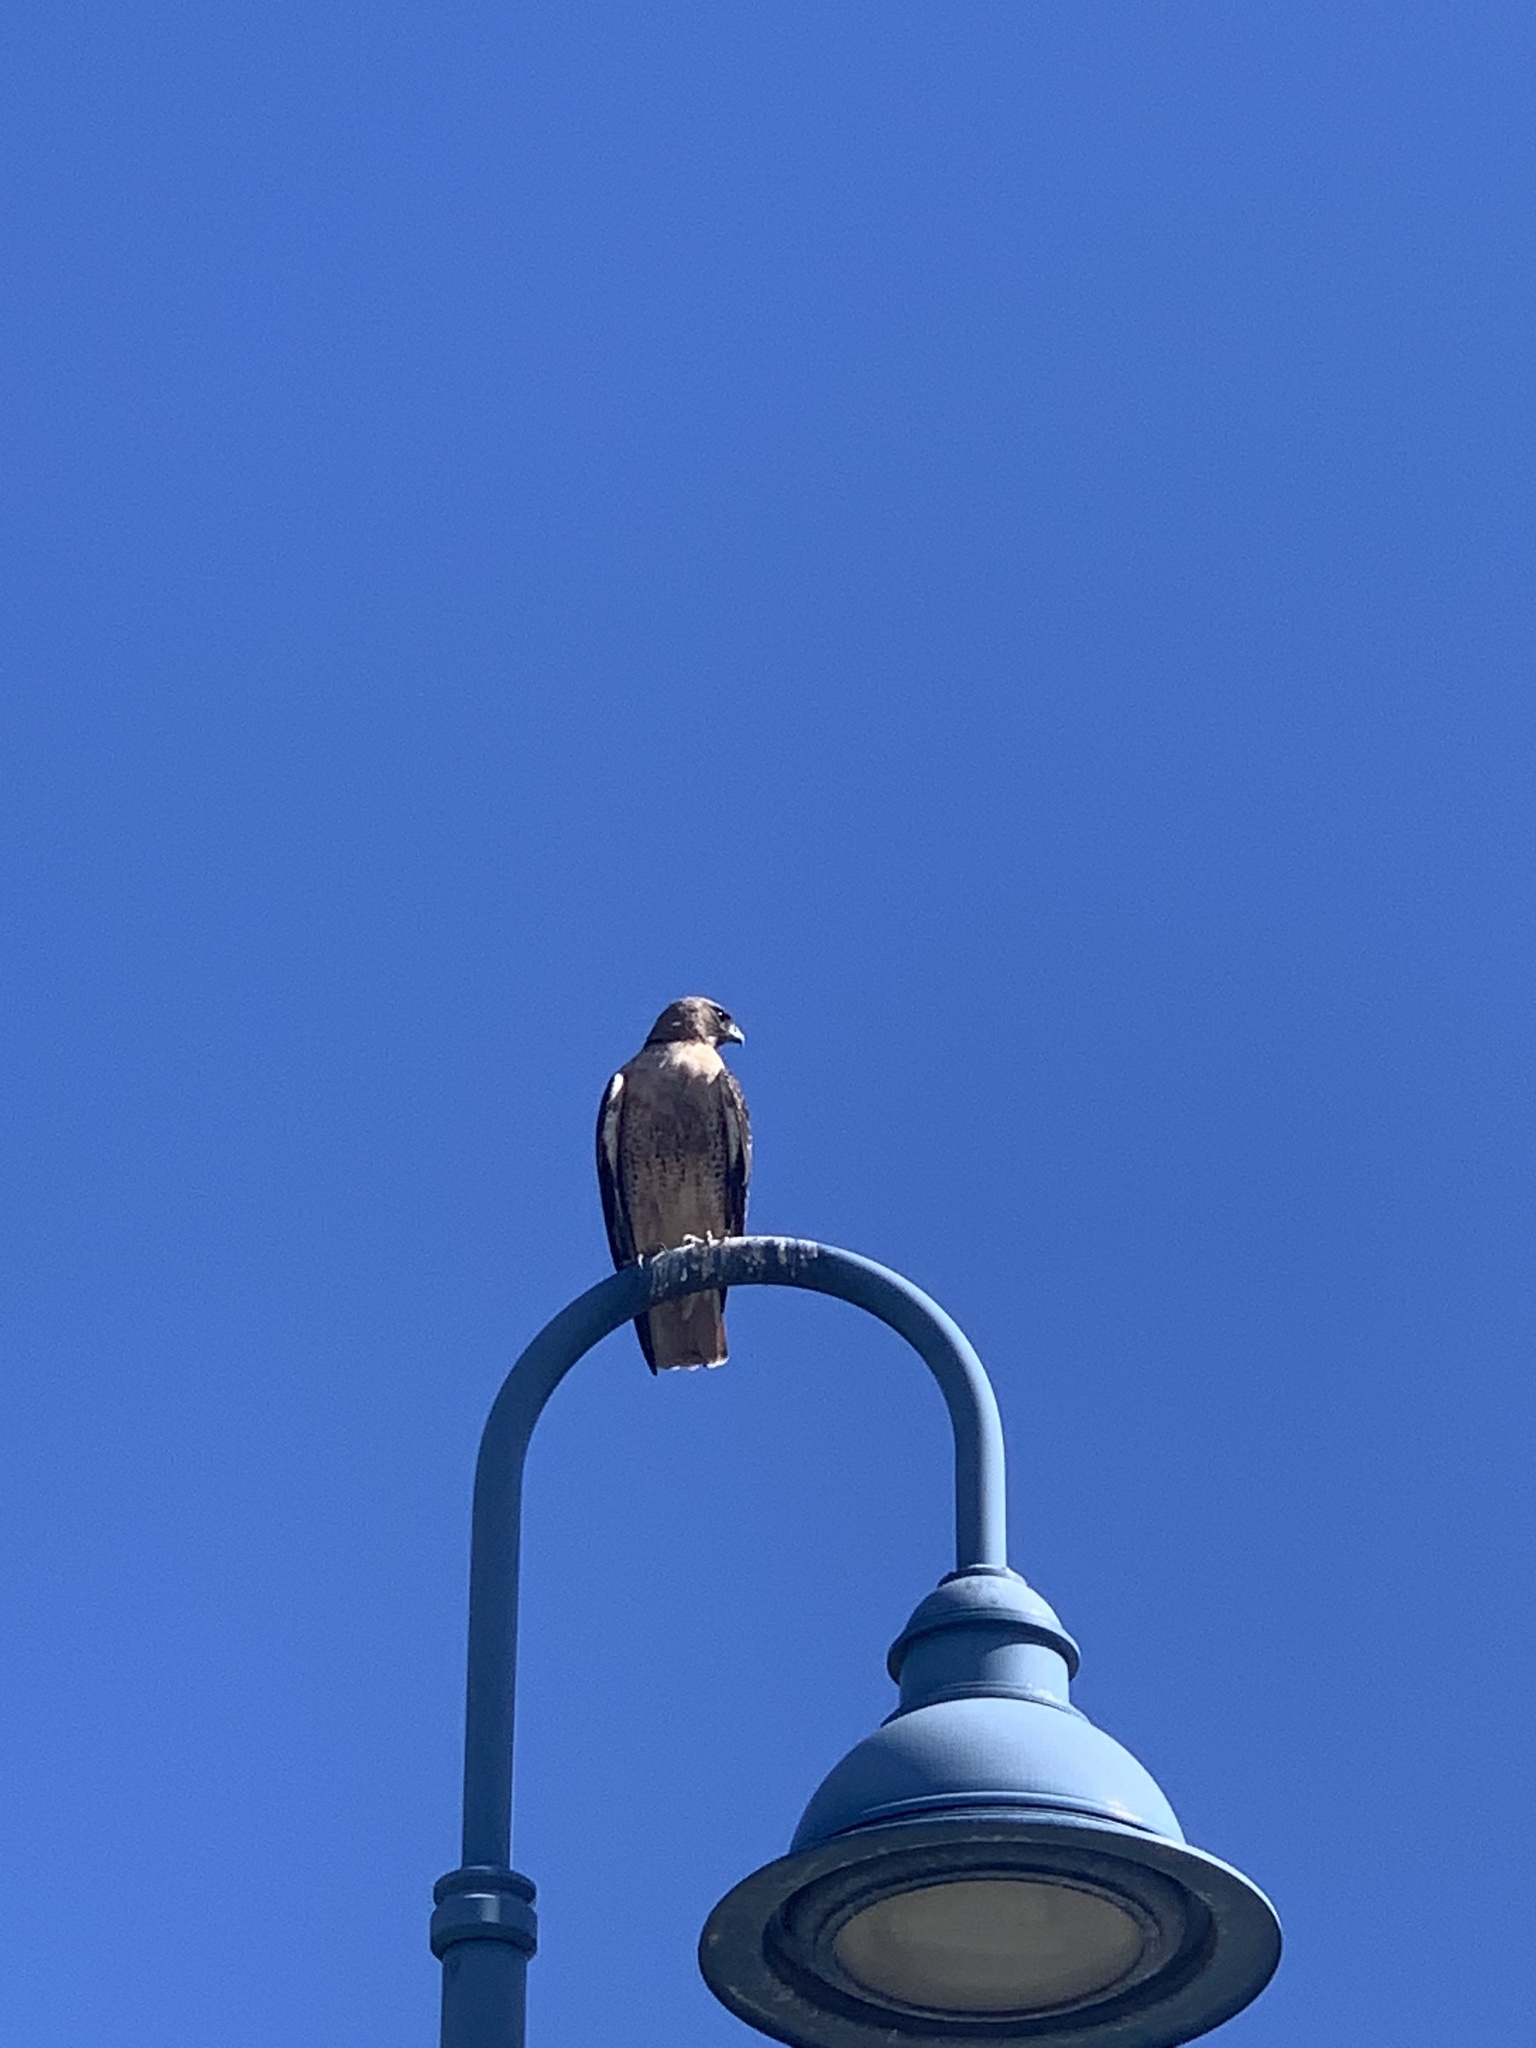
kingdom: Animalia
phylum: Chordata
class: Aves
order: Accipitriformes
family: Accipitridae
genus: Buteo
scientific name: Buteo jamaicensis
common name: Red-tailed hawk
